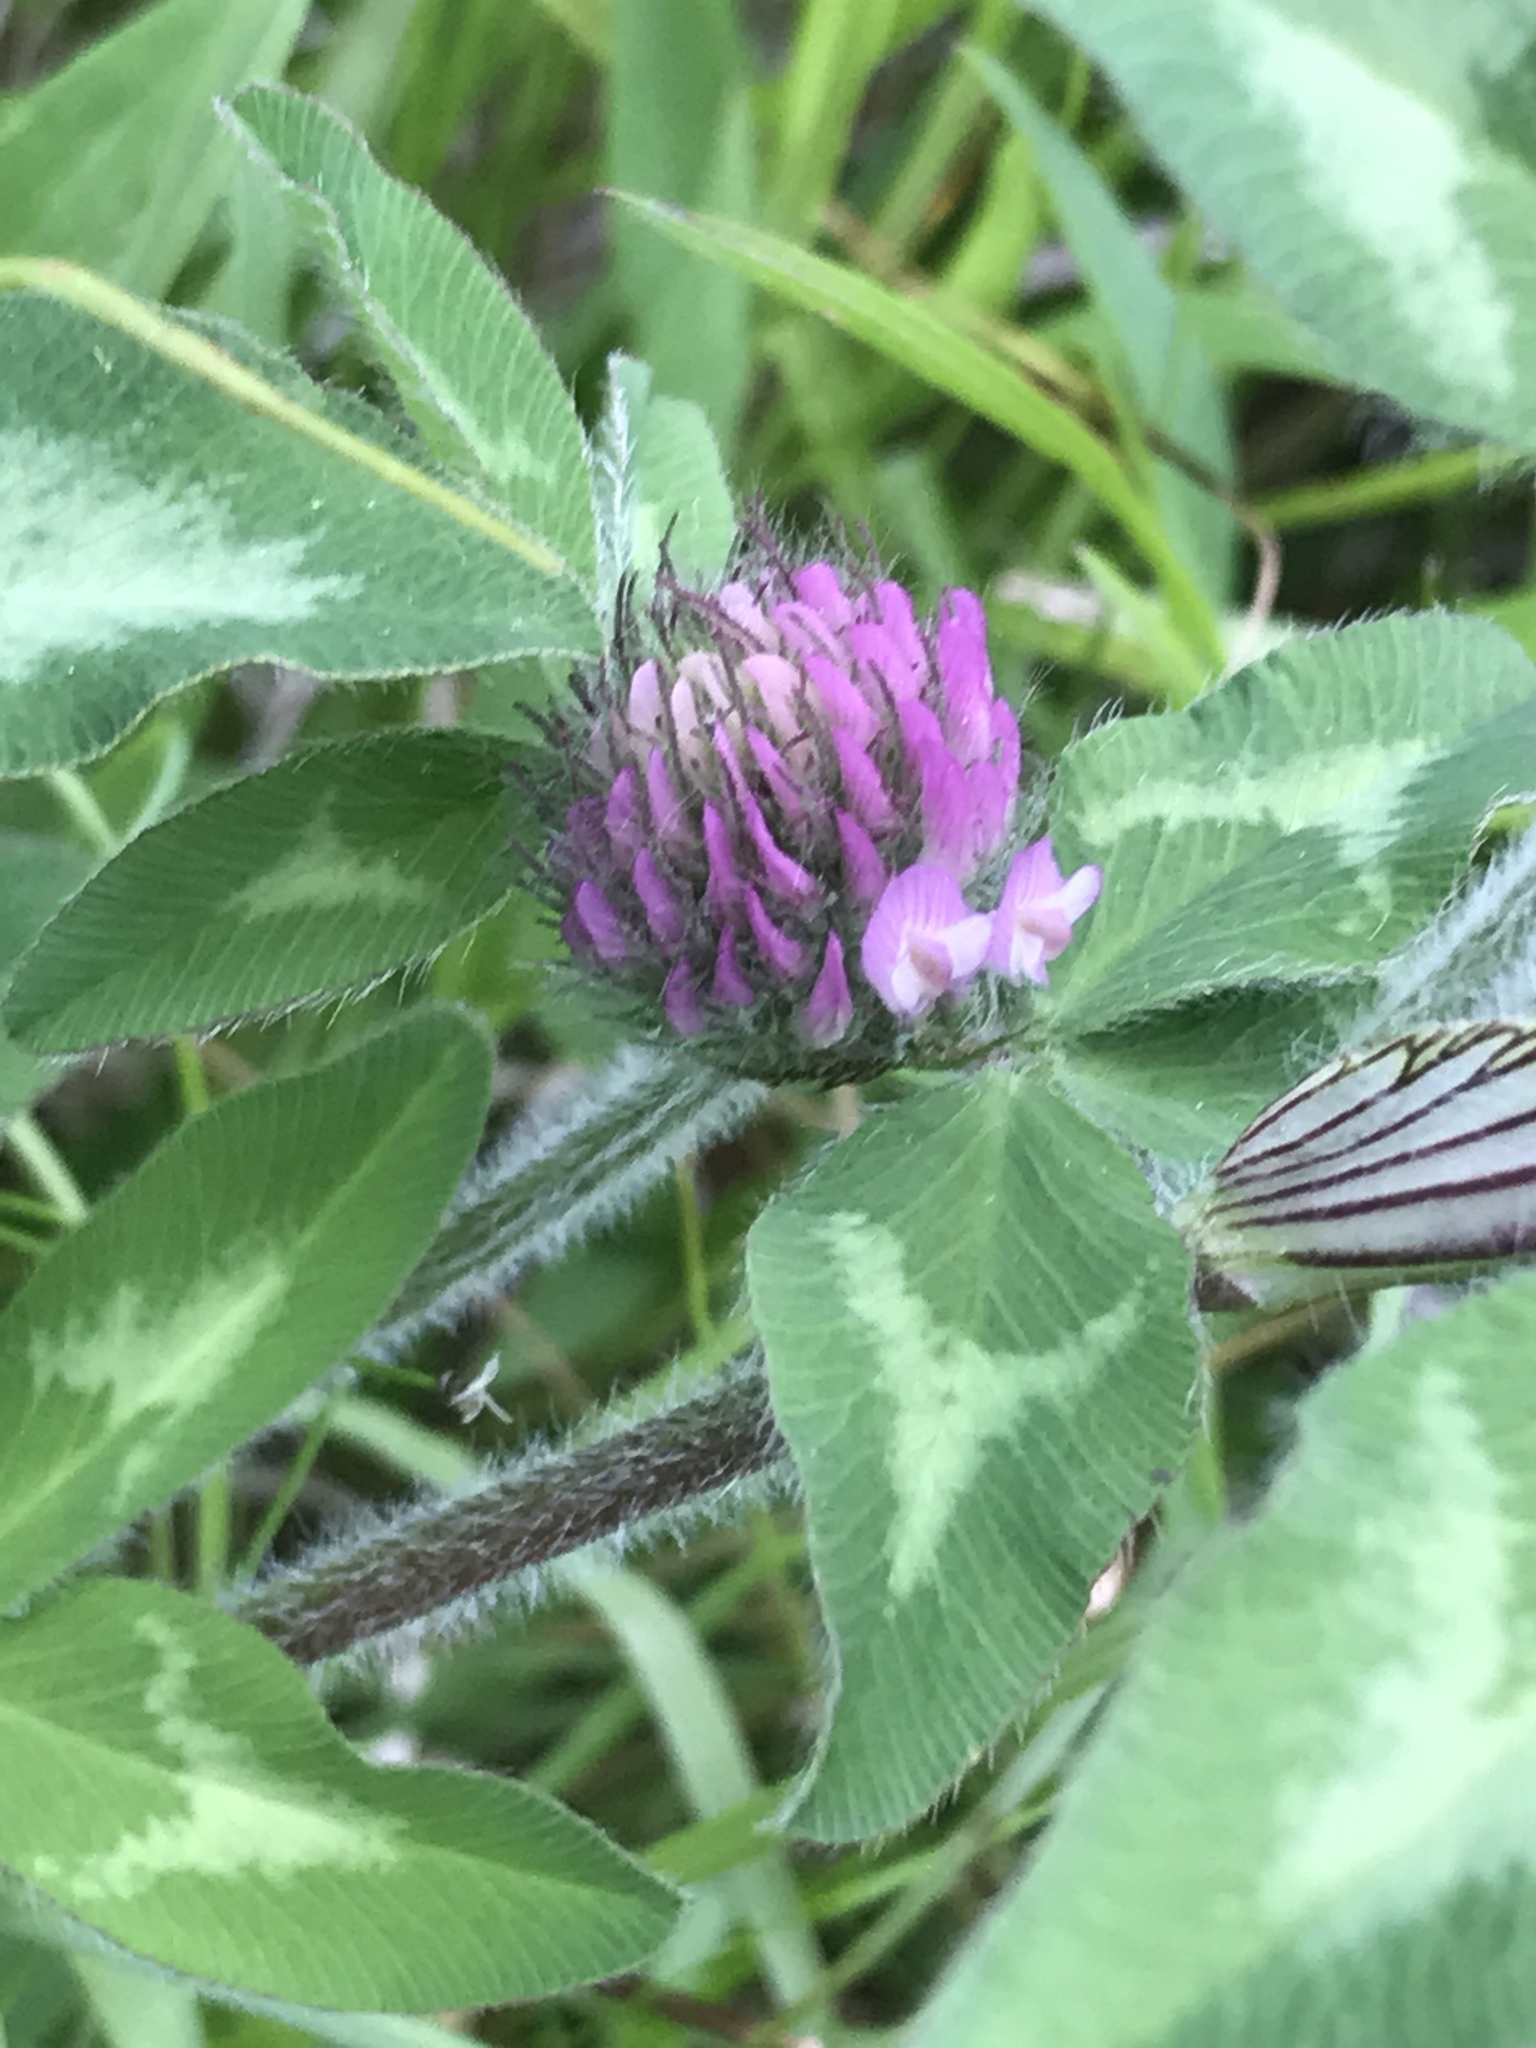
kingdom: Plantae
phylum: Tracheophyta
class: Magnoliopsida
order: Fabales
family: Fabaceae
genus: Trifolium
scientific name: Trifolium pratense
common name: Red clover
